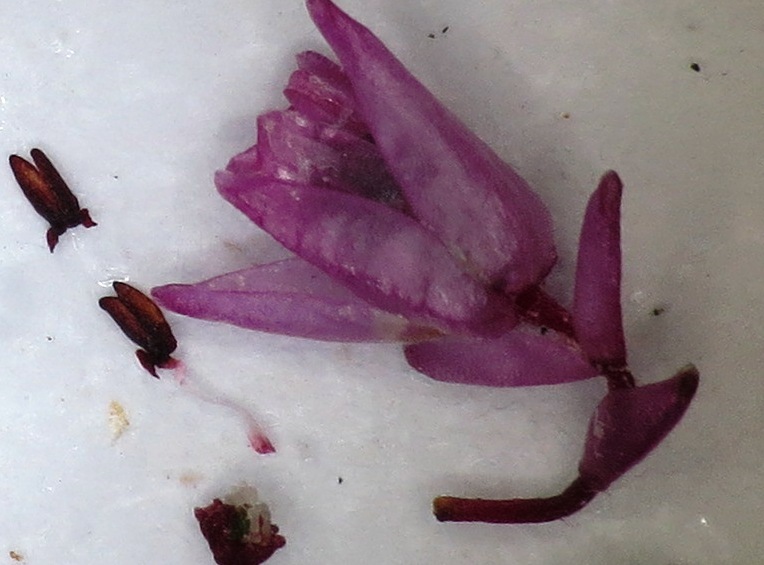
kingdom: Plantae
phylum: Tracheophyta
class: Magnoliopsida
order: Ericales
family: Ericaceae
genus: Erica
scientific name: Erica brevifolia
